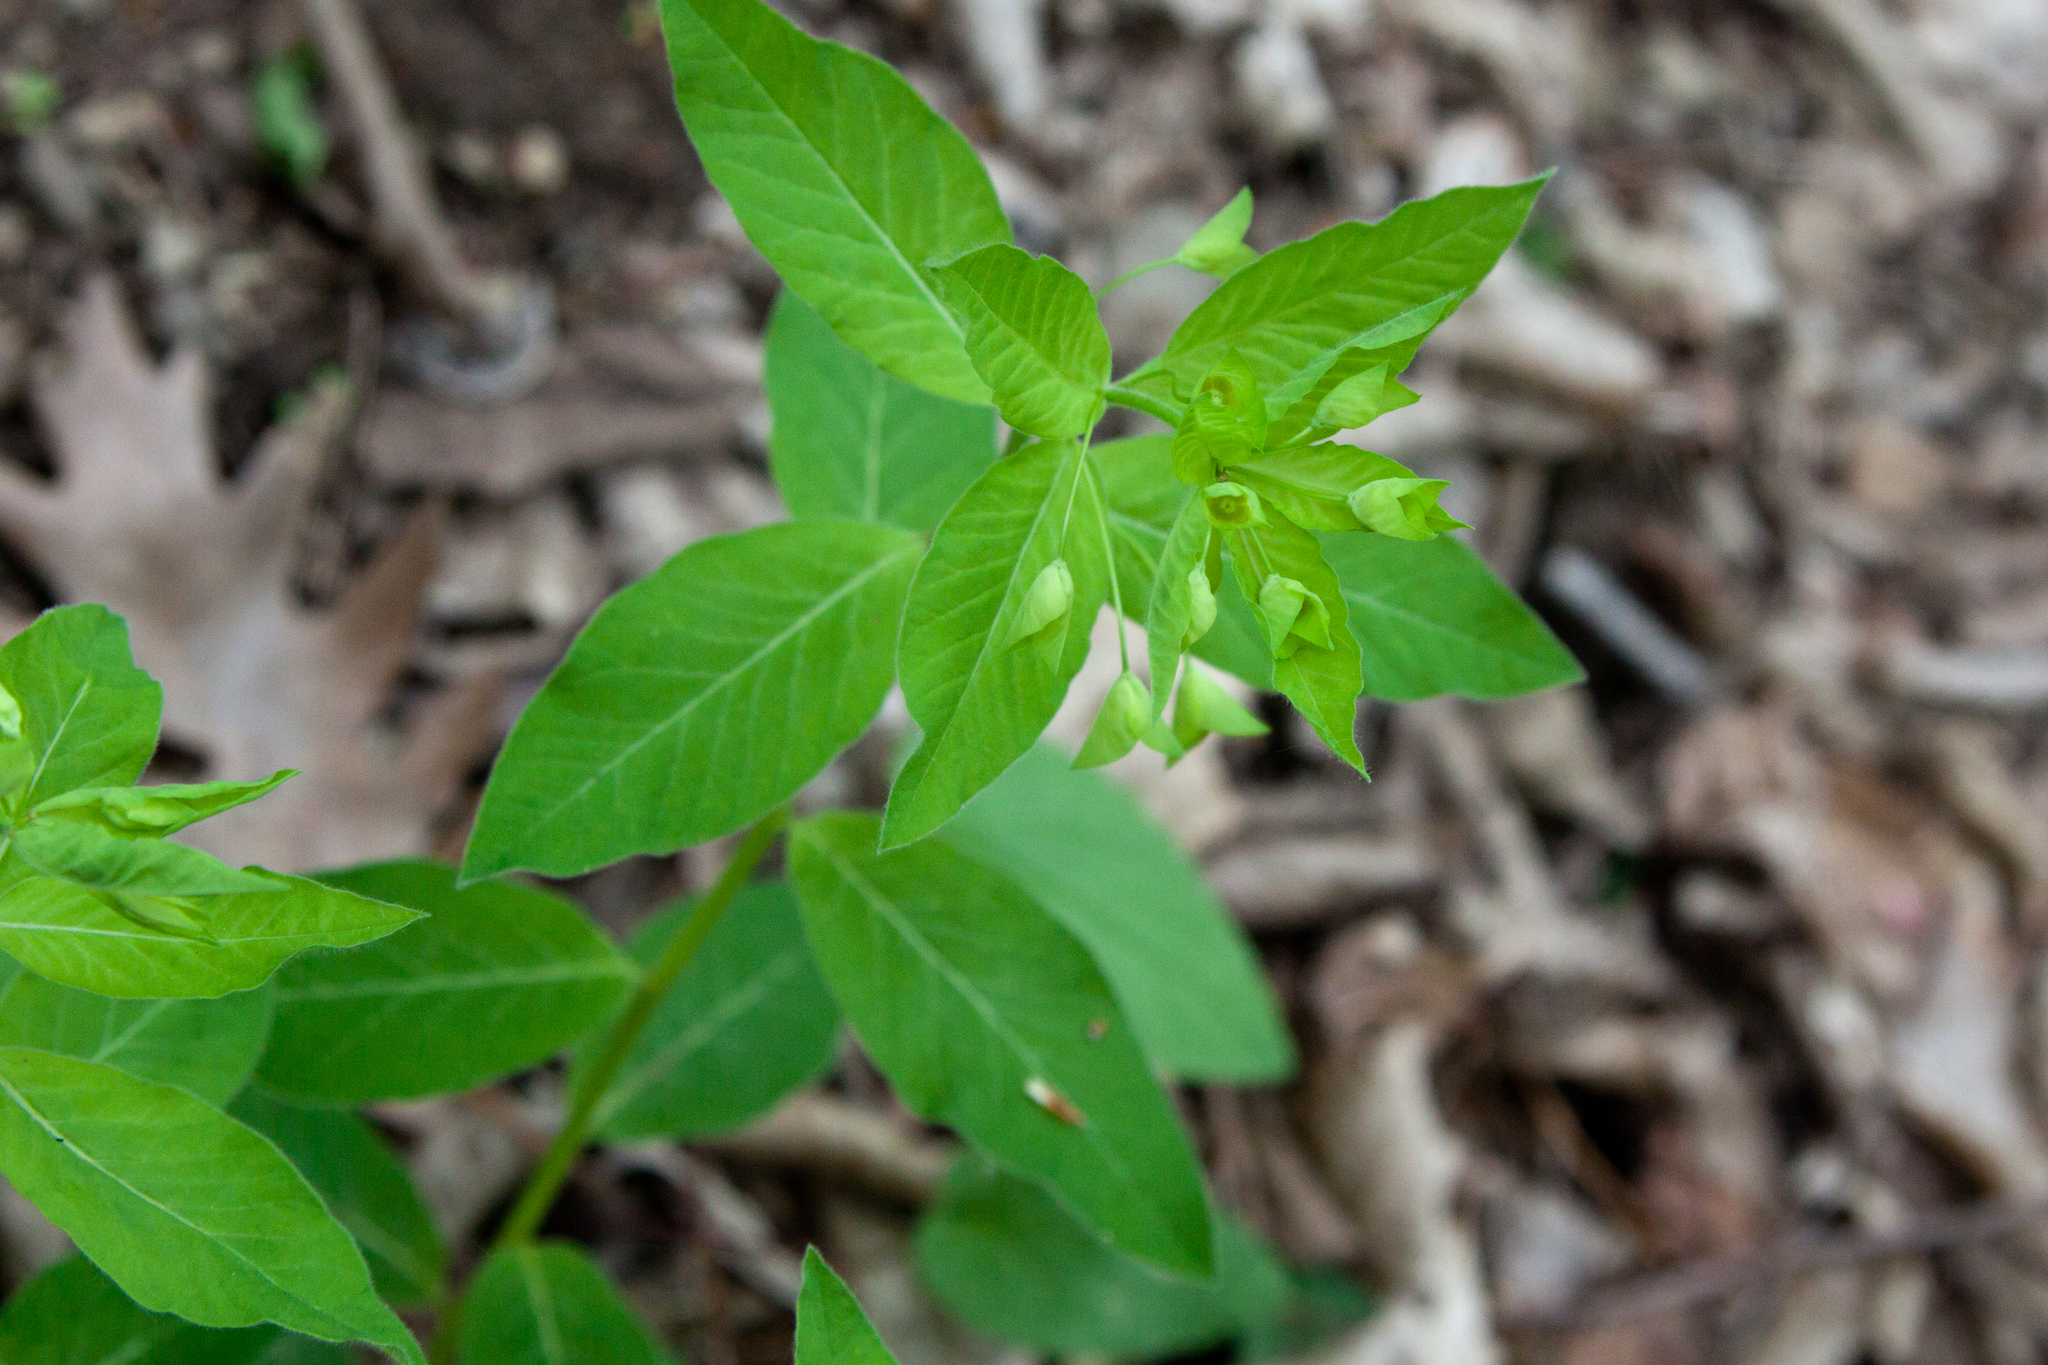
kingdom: Plantae
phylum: Tracheophyta
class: Magnoliopsida
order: Malpighiales
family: Euphorbiaceae
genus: Euphorbia
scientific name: Euphorbia squamosa
